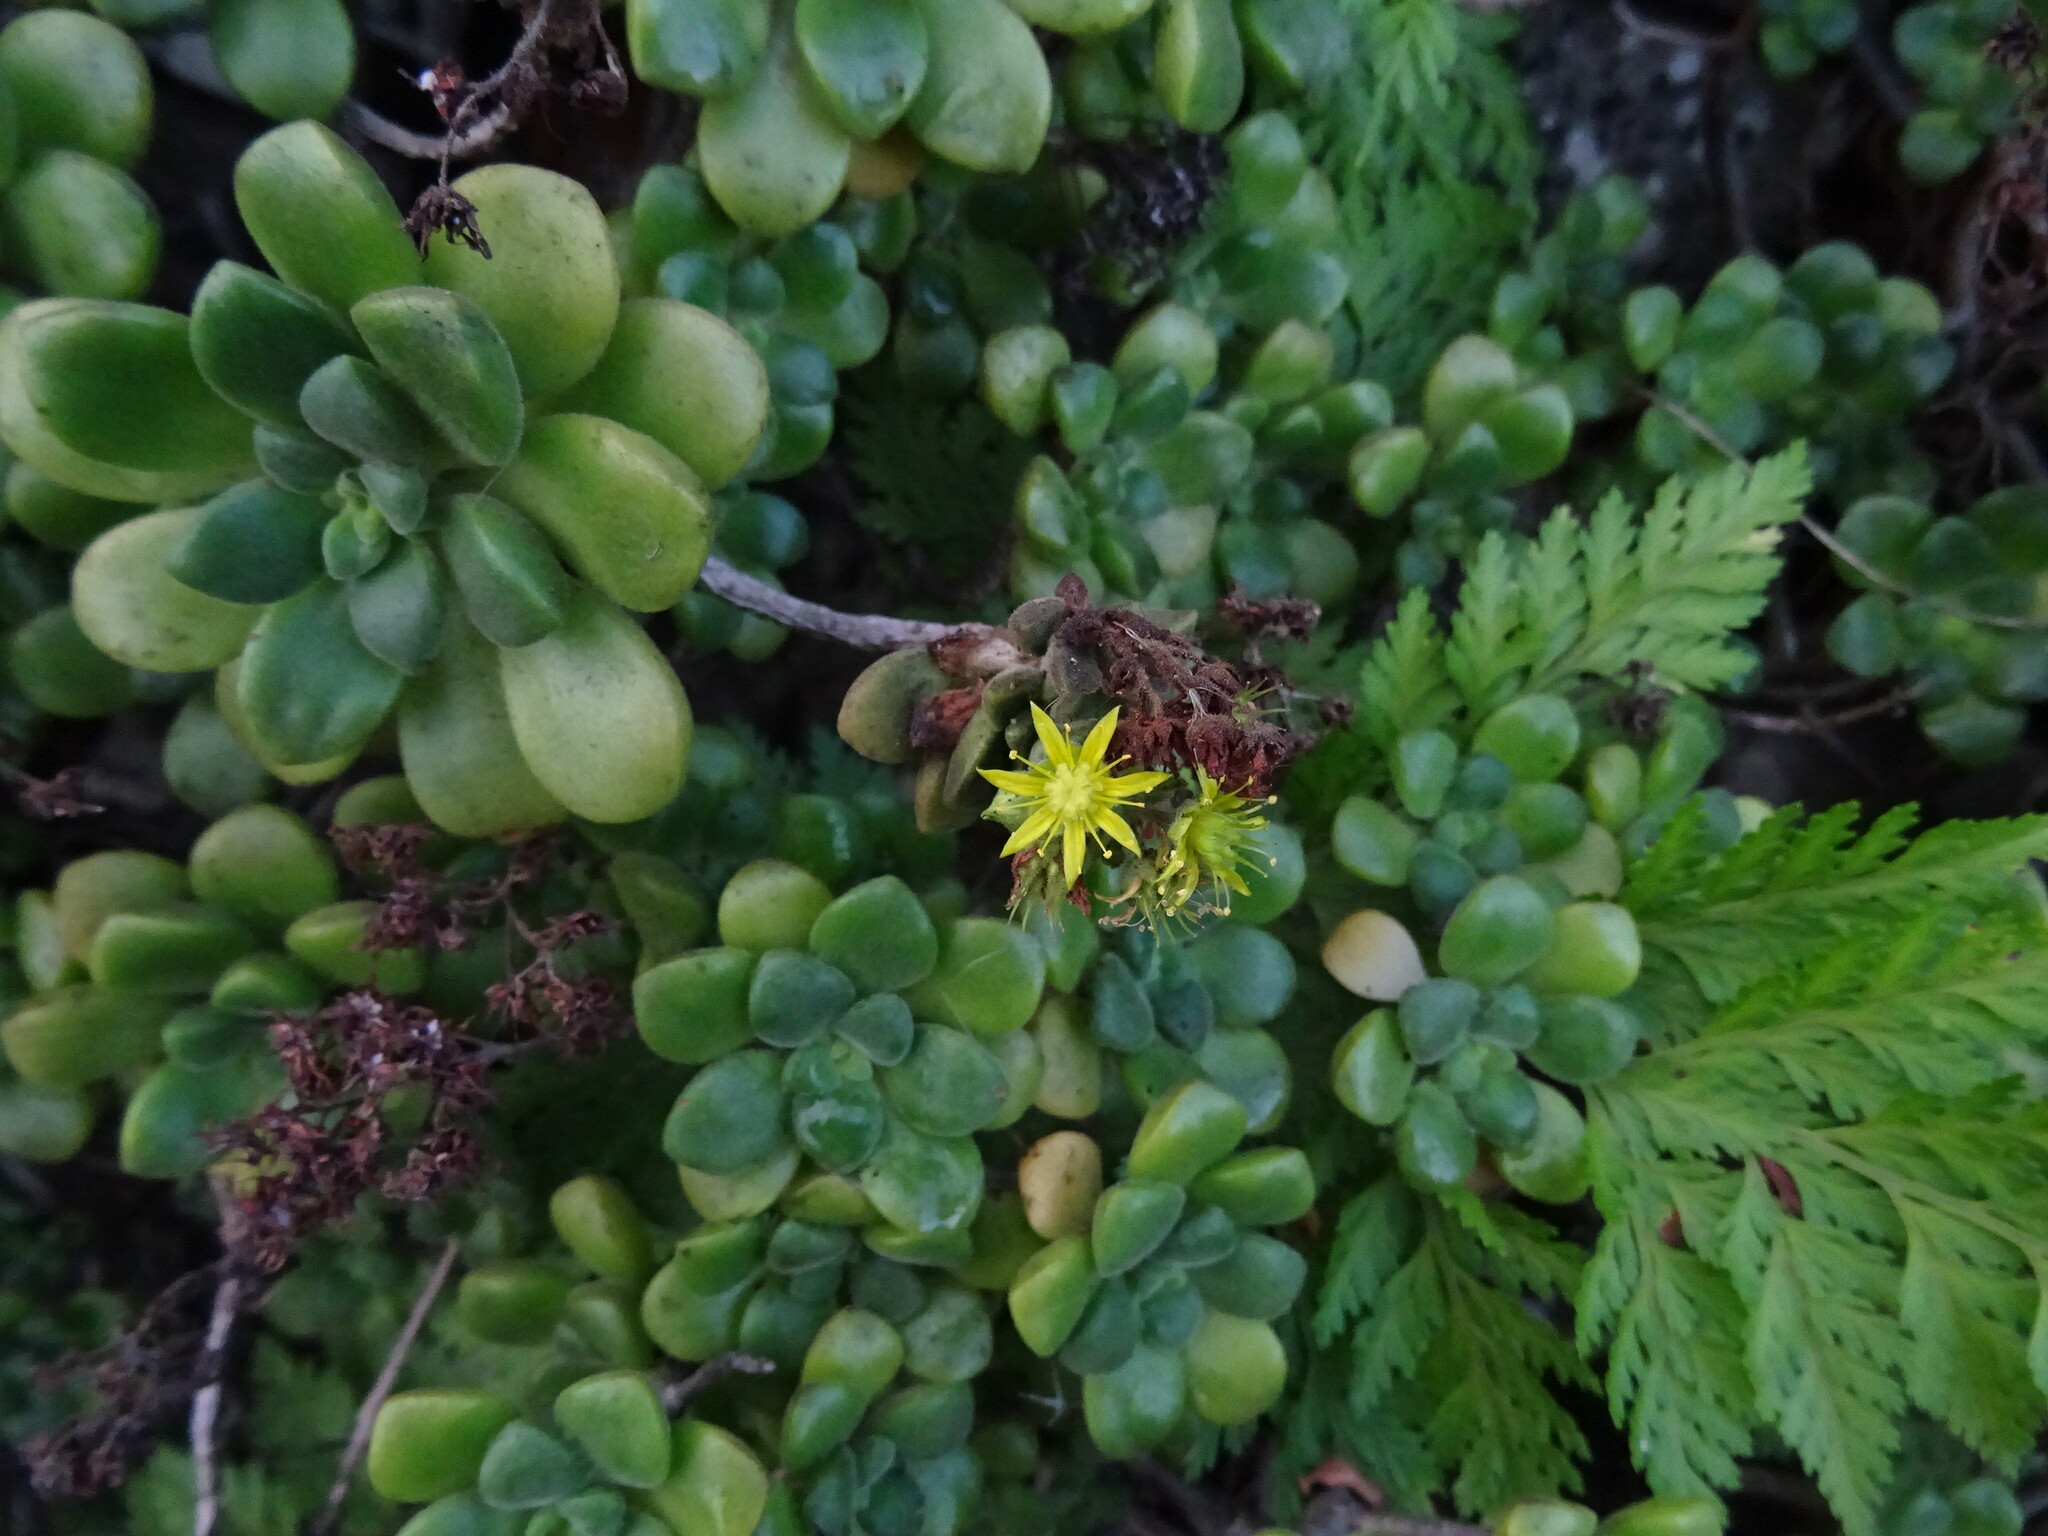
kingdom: Plantae
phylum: Tracheophyta
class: Magnoliopsida
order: Saxifragales
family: Crassulaceae
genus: Aeonium
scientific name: Aeonium lindleyi
